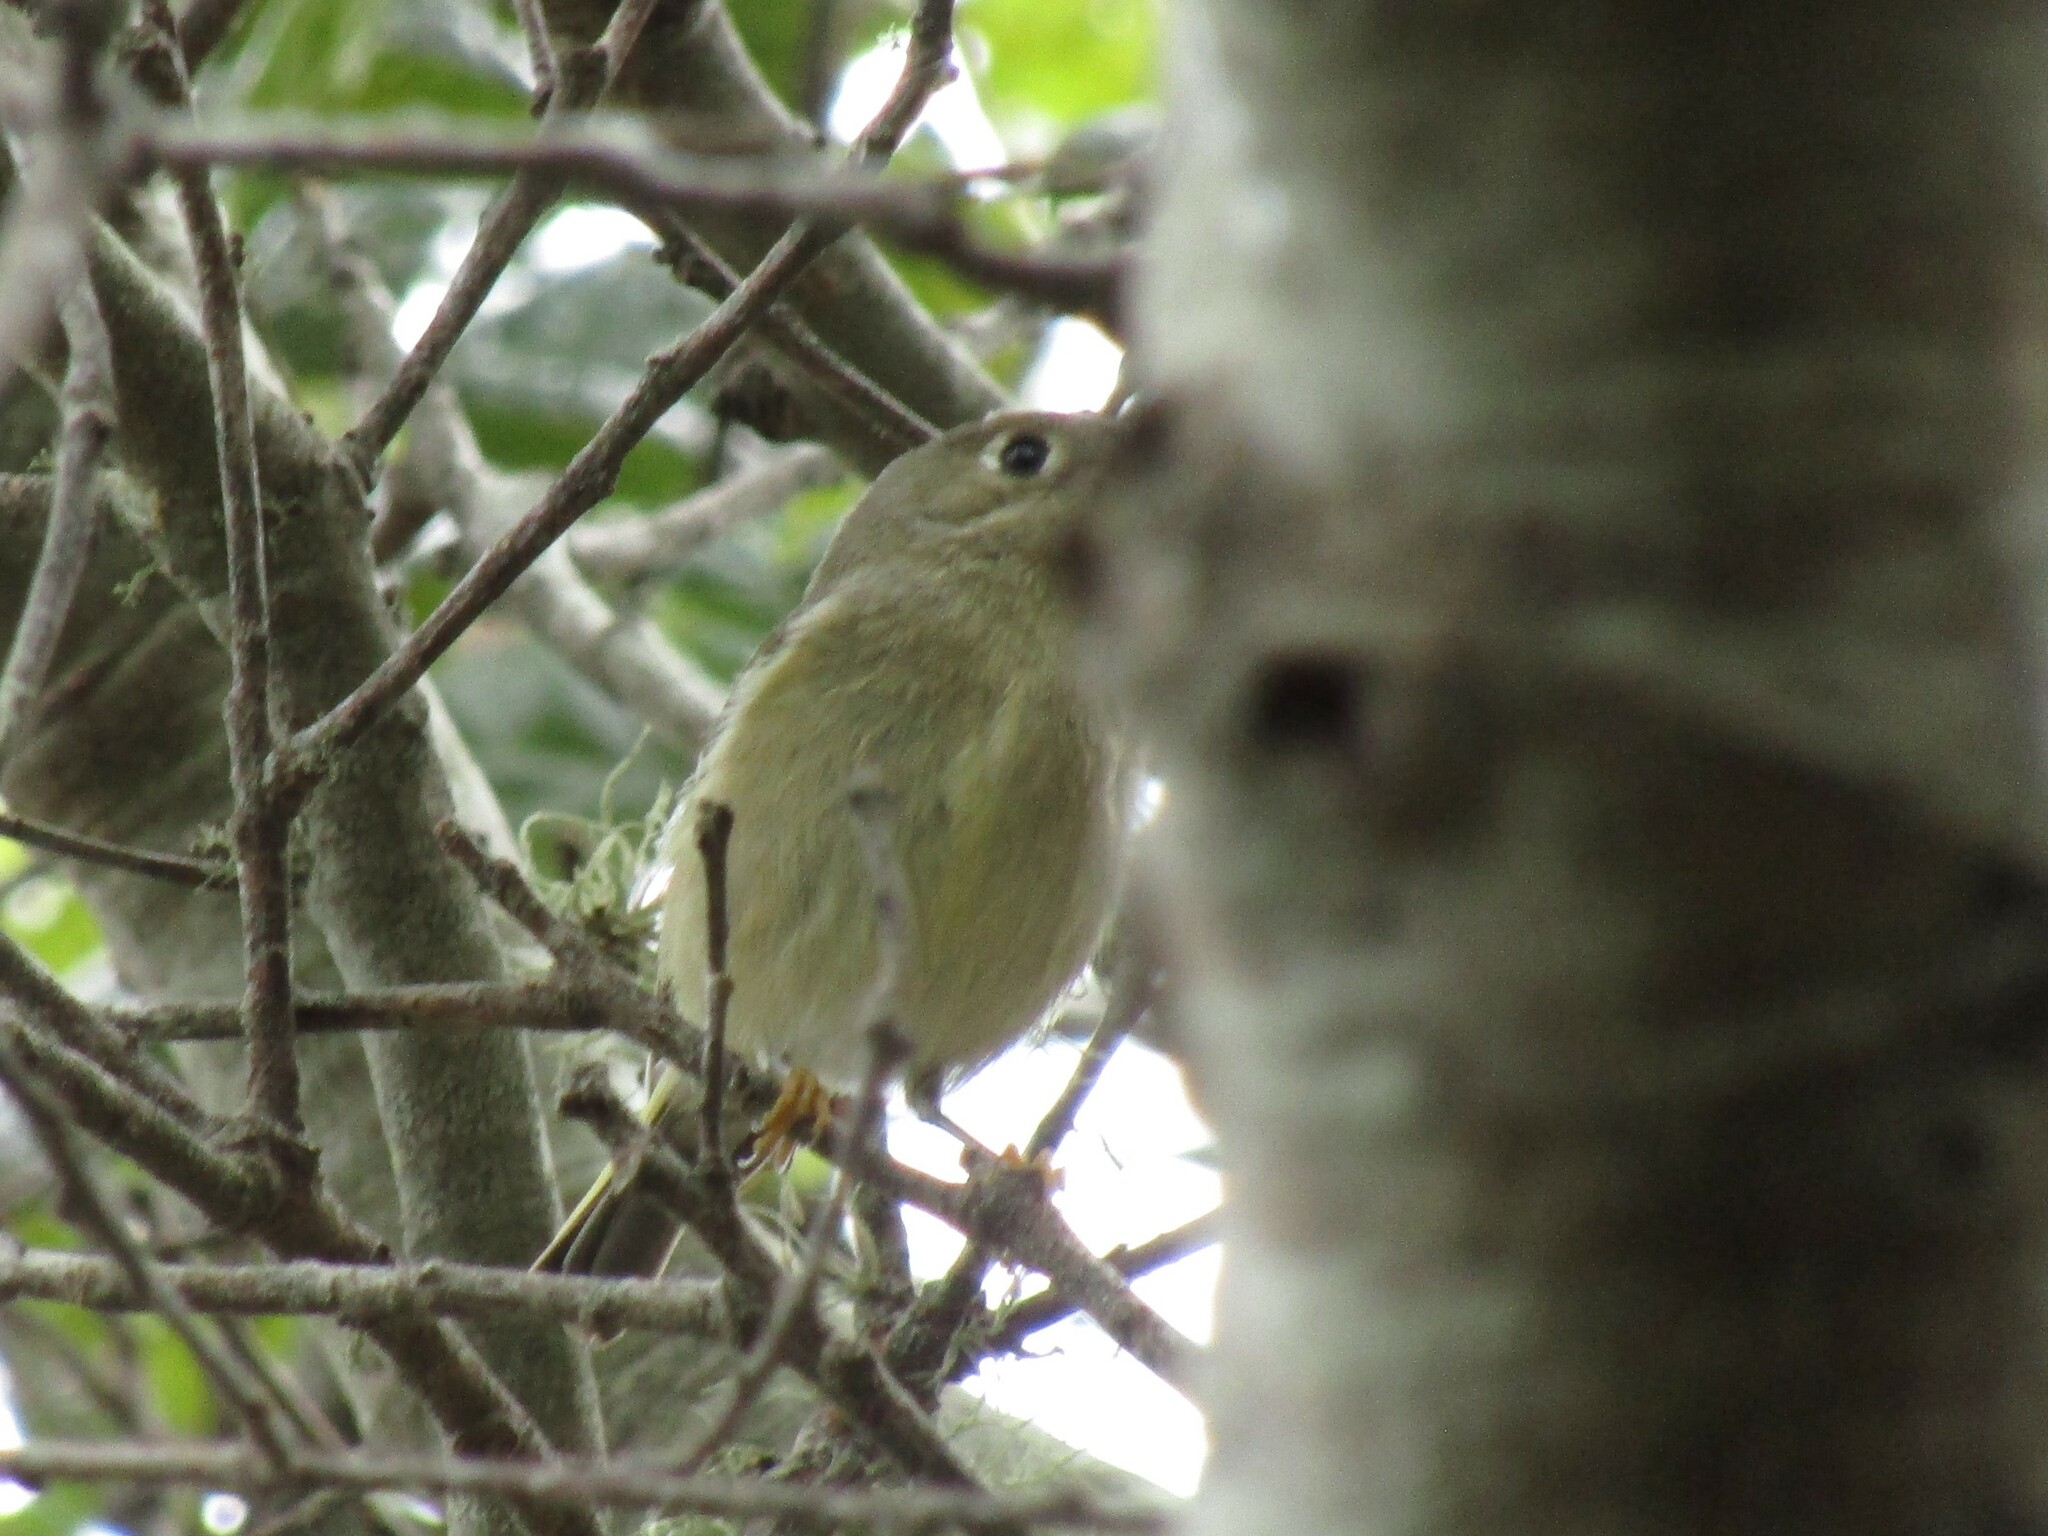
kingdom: Animalia
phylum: Chordata
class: Aves
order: Passeriformes
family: Regulidae
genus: Regulus
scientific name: Regulus calendula
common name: Ruby-crowned kinglet
